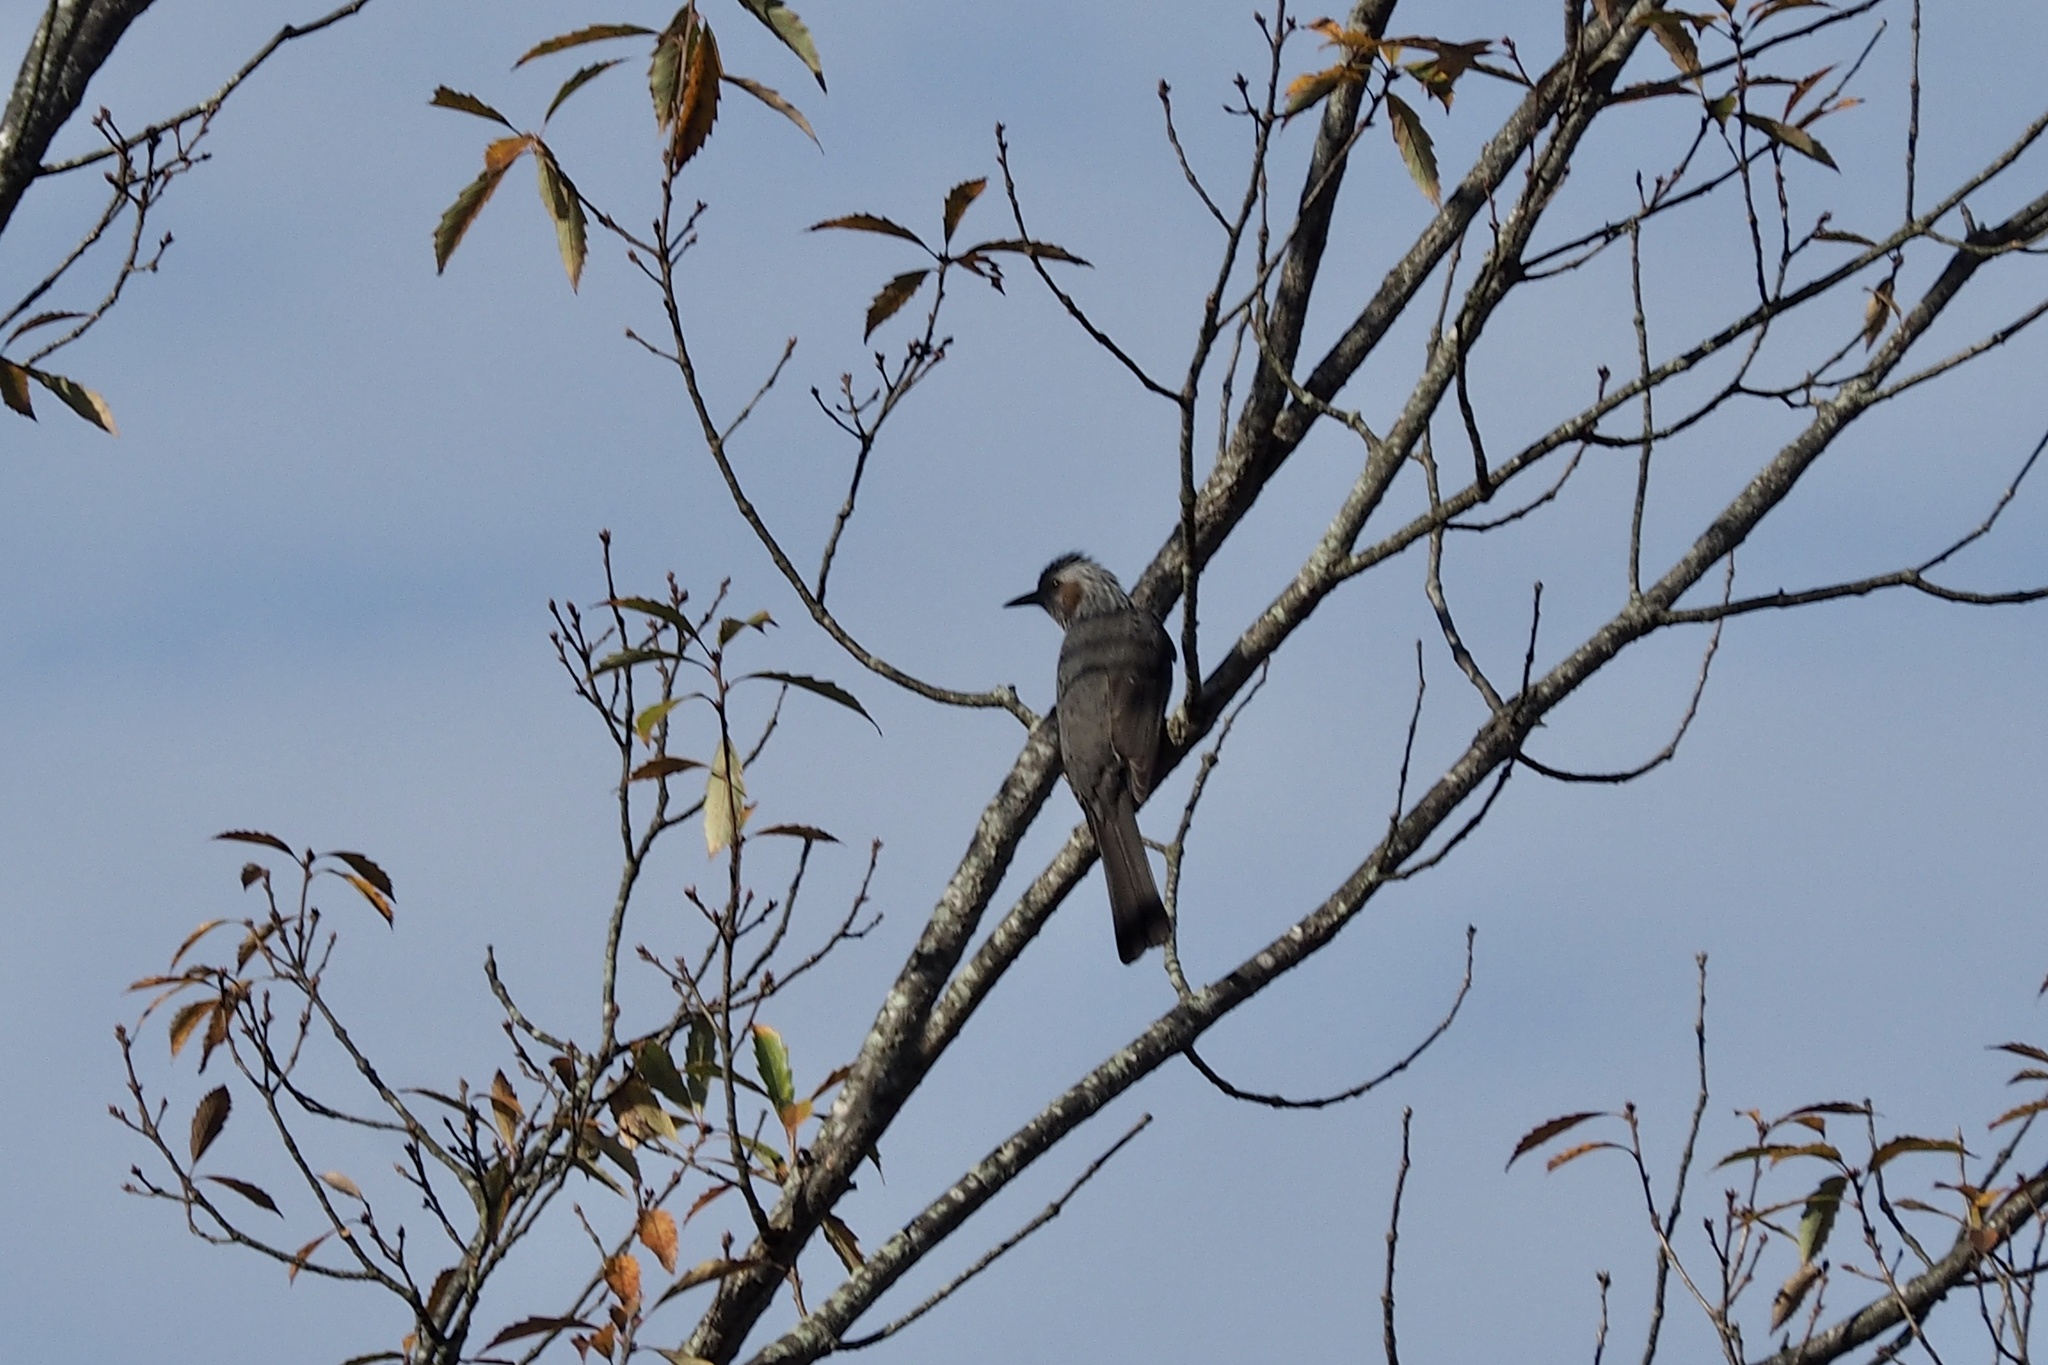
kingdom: Animalia
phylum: Chordata
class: Aves
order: Passeriformes
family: Pycnonotidae
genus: Hypsipetes
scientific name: Hypsipetes amaurotis
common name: Brown-eared bulbul
